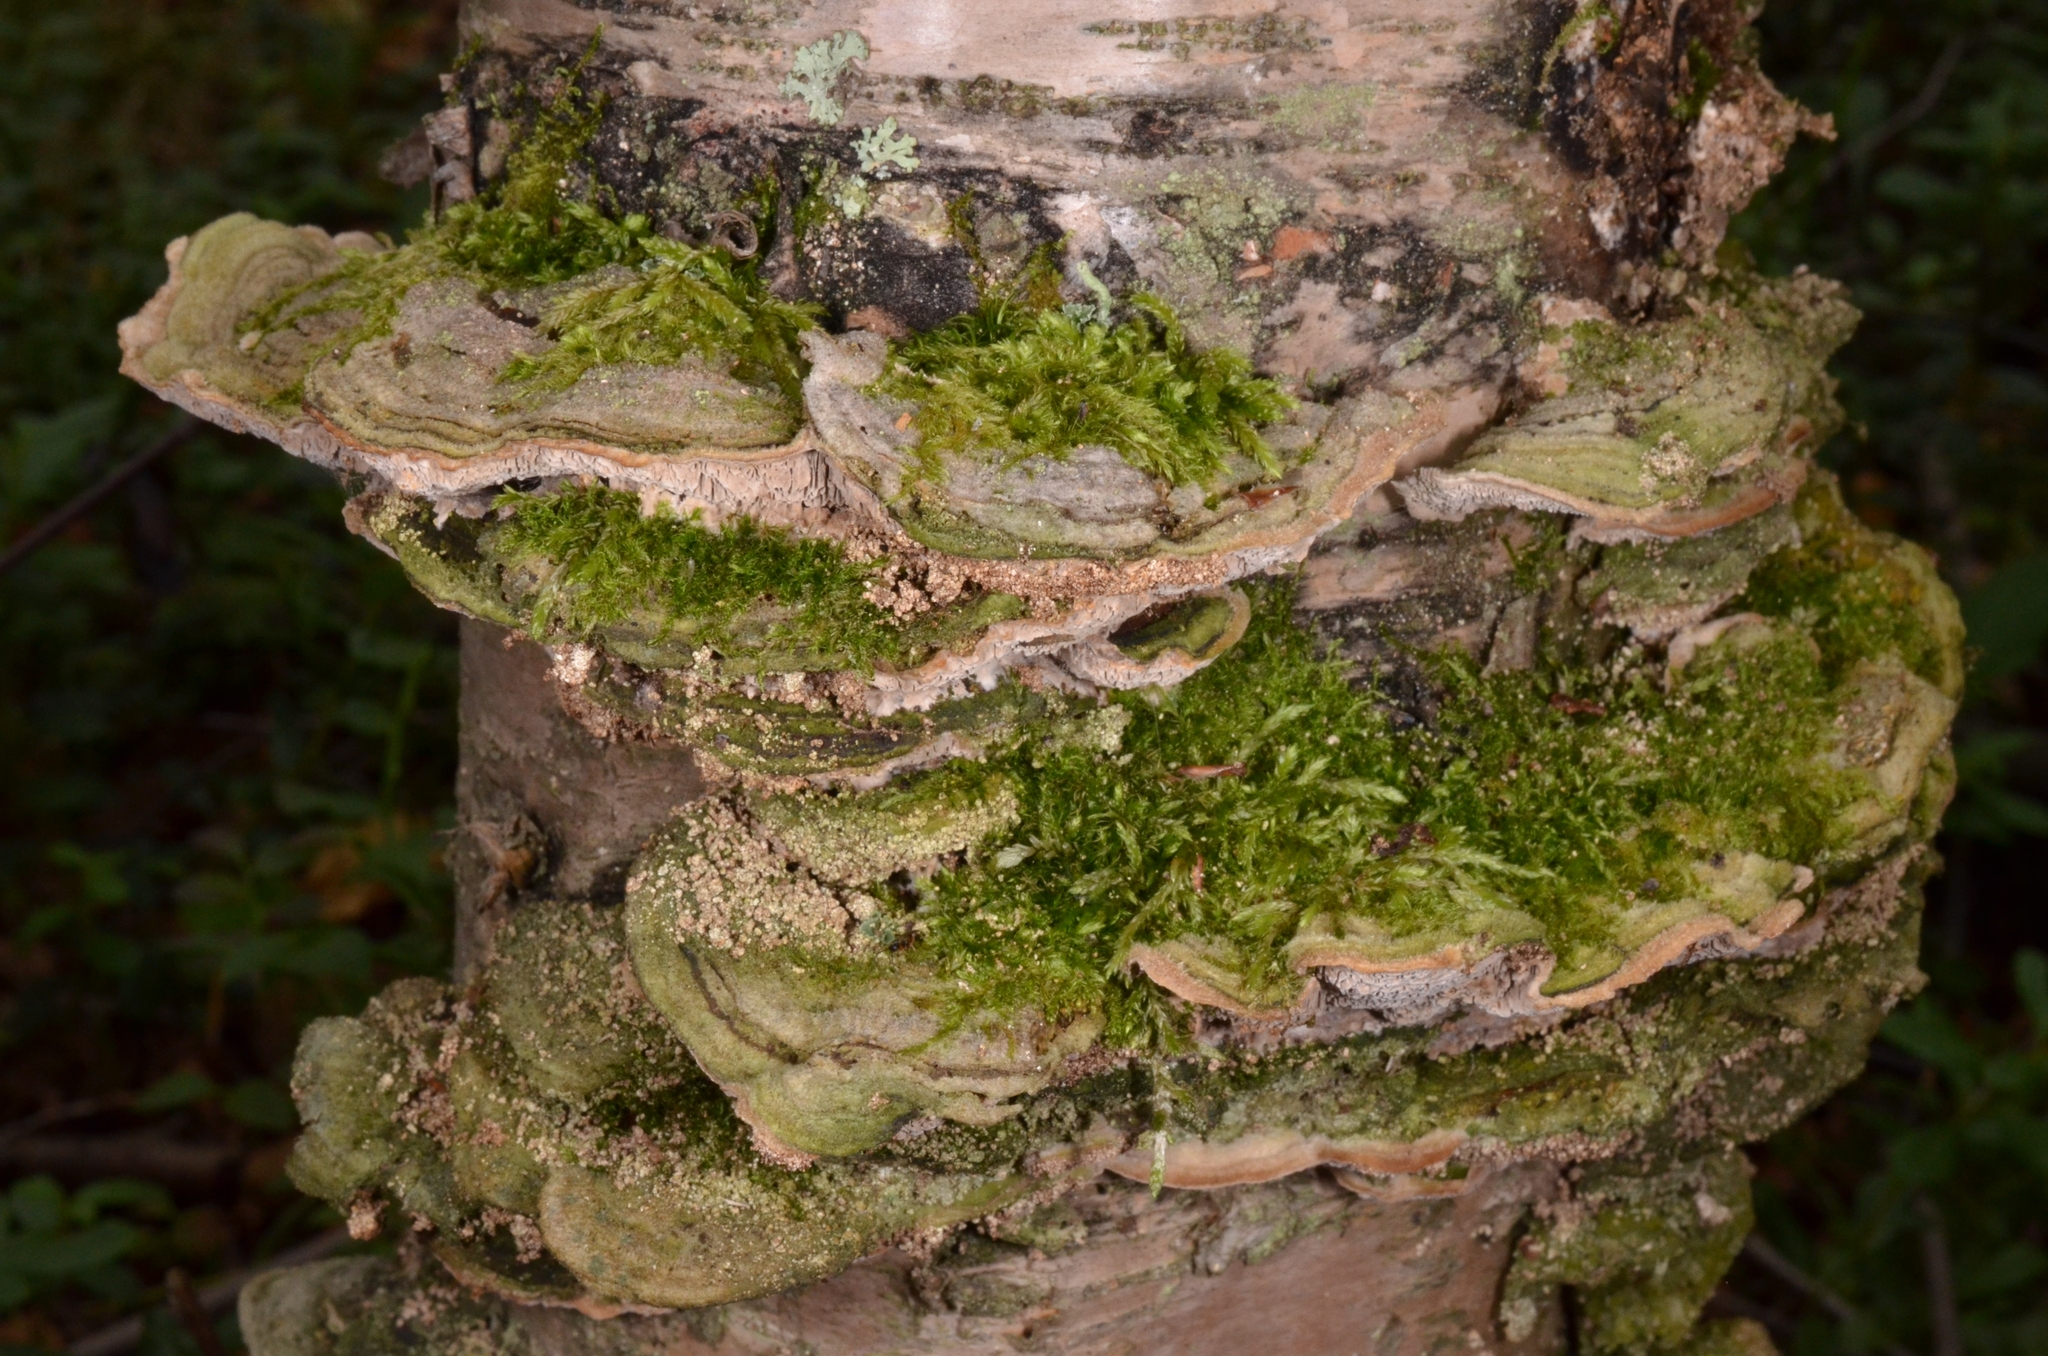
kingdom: Fungi
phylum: Basidiomycota
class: Agaricomycetes
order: Polyporales
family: Cerrenaceae
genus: Cerrena
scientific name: Cerrena unicolor
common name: Mossy maze polypore
